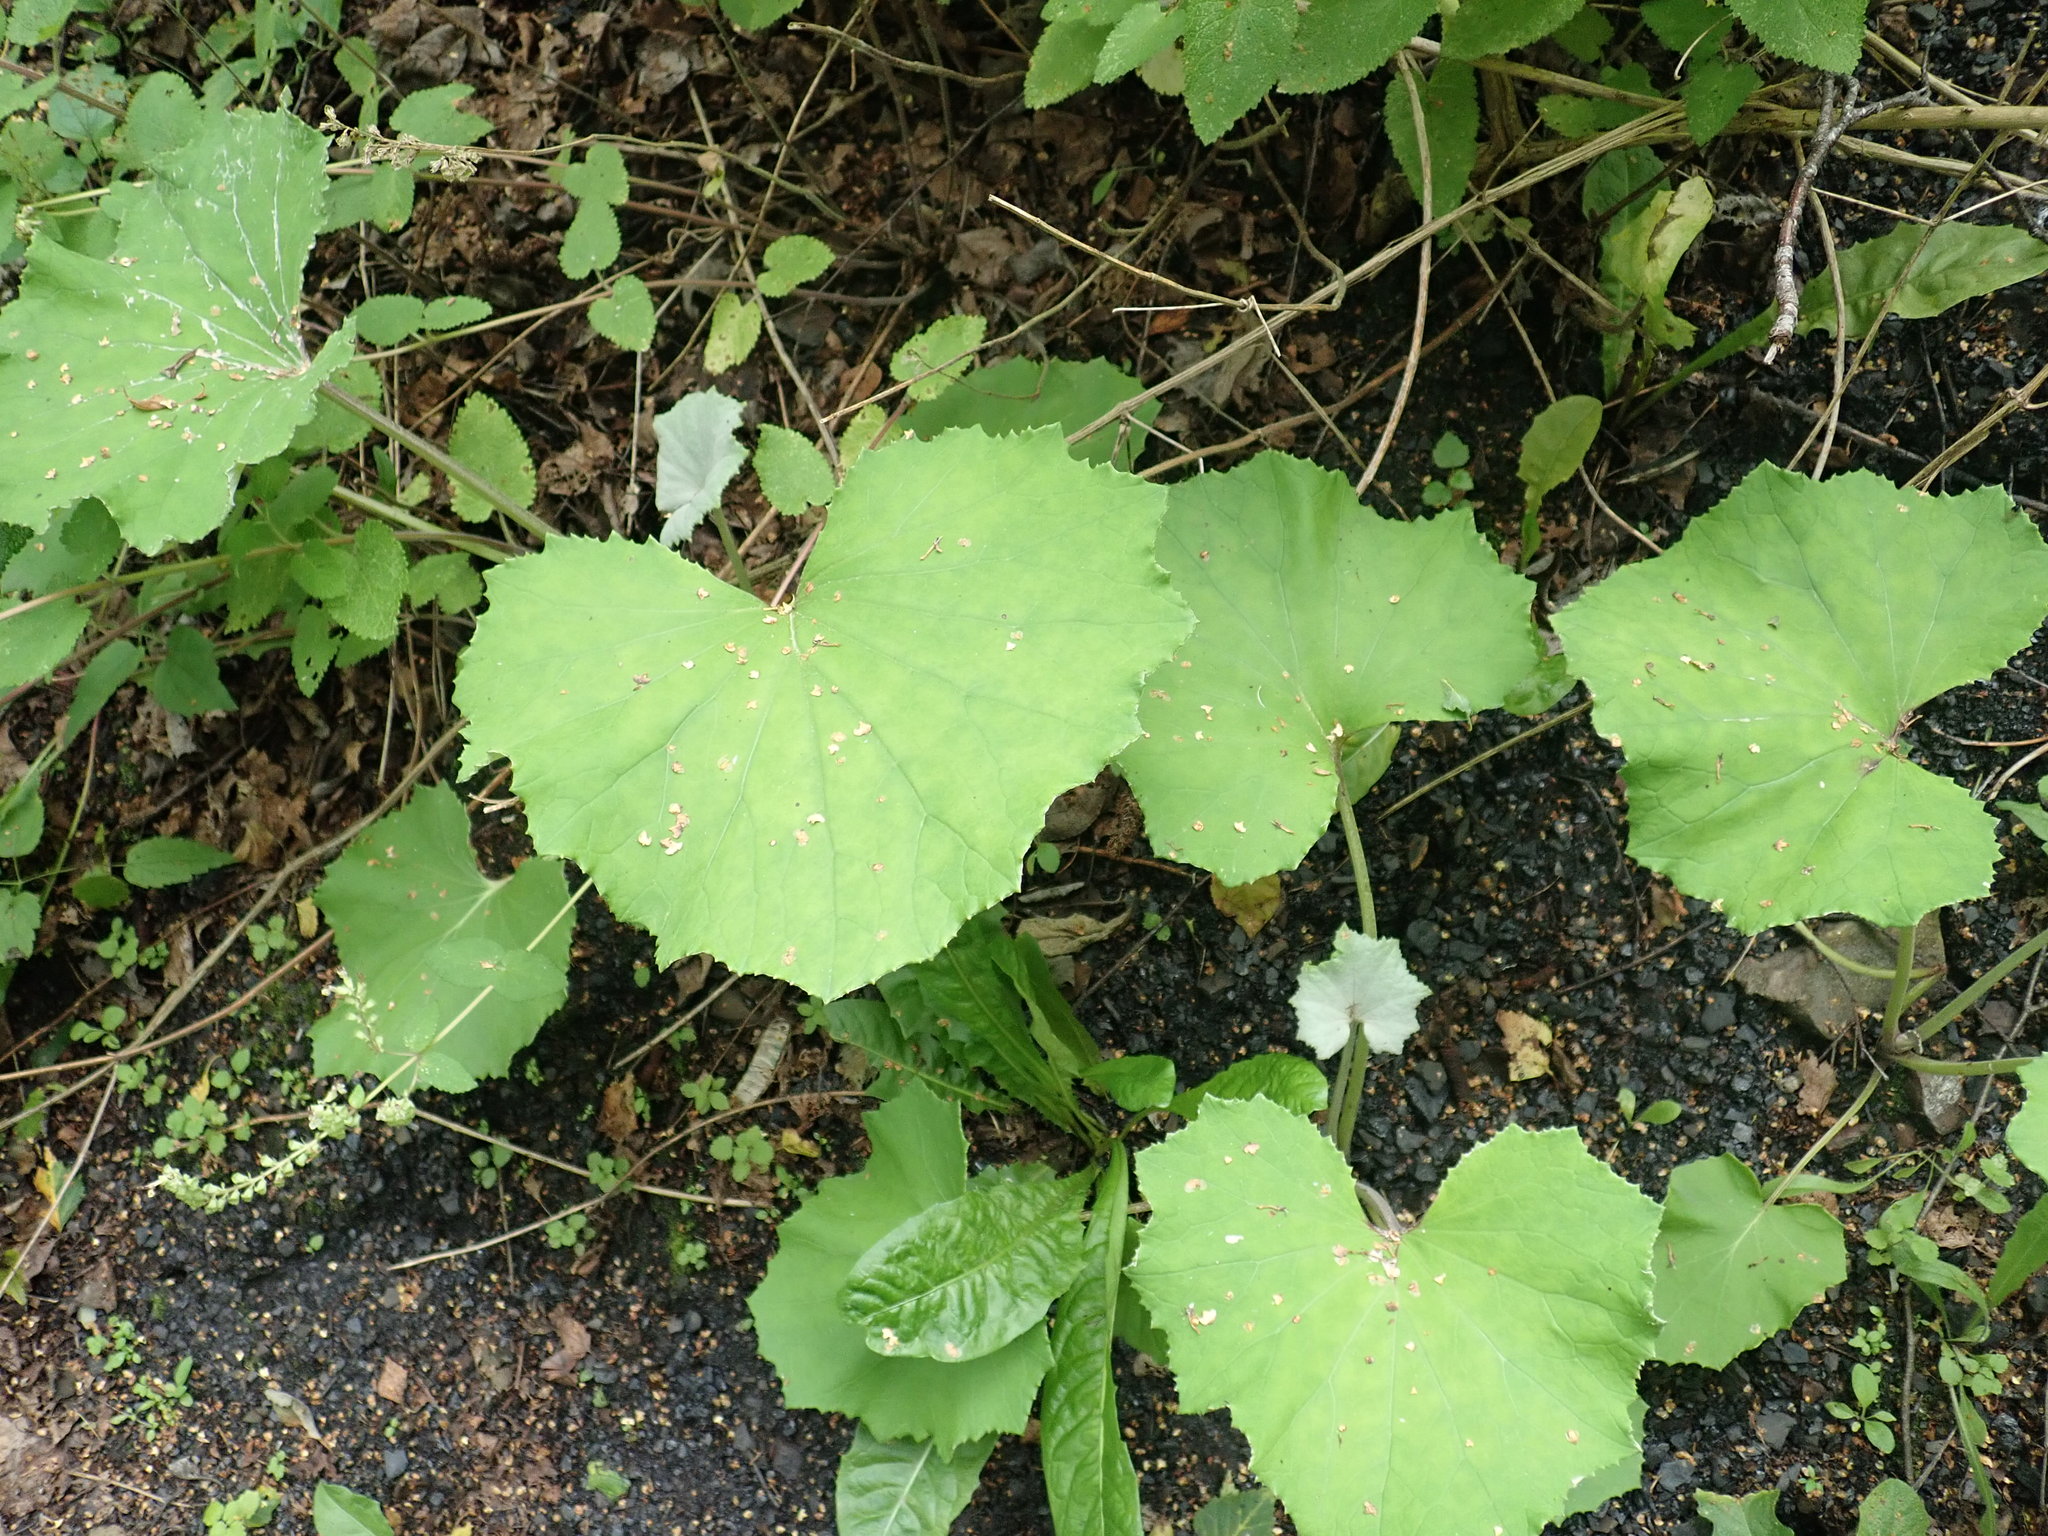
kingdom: Plantae
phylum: Tracheophyta
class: Magnoliopsida
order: Asterales
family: Asteraceae
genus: Tussilago
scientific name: Tussilago farfara
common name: Coltsfoot
